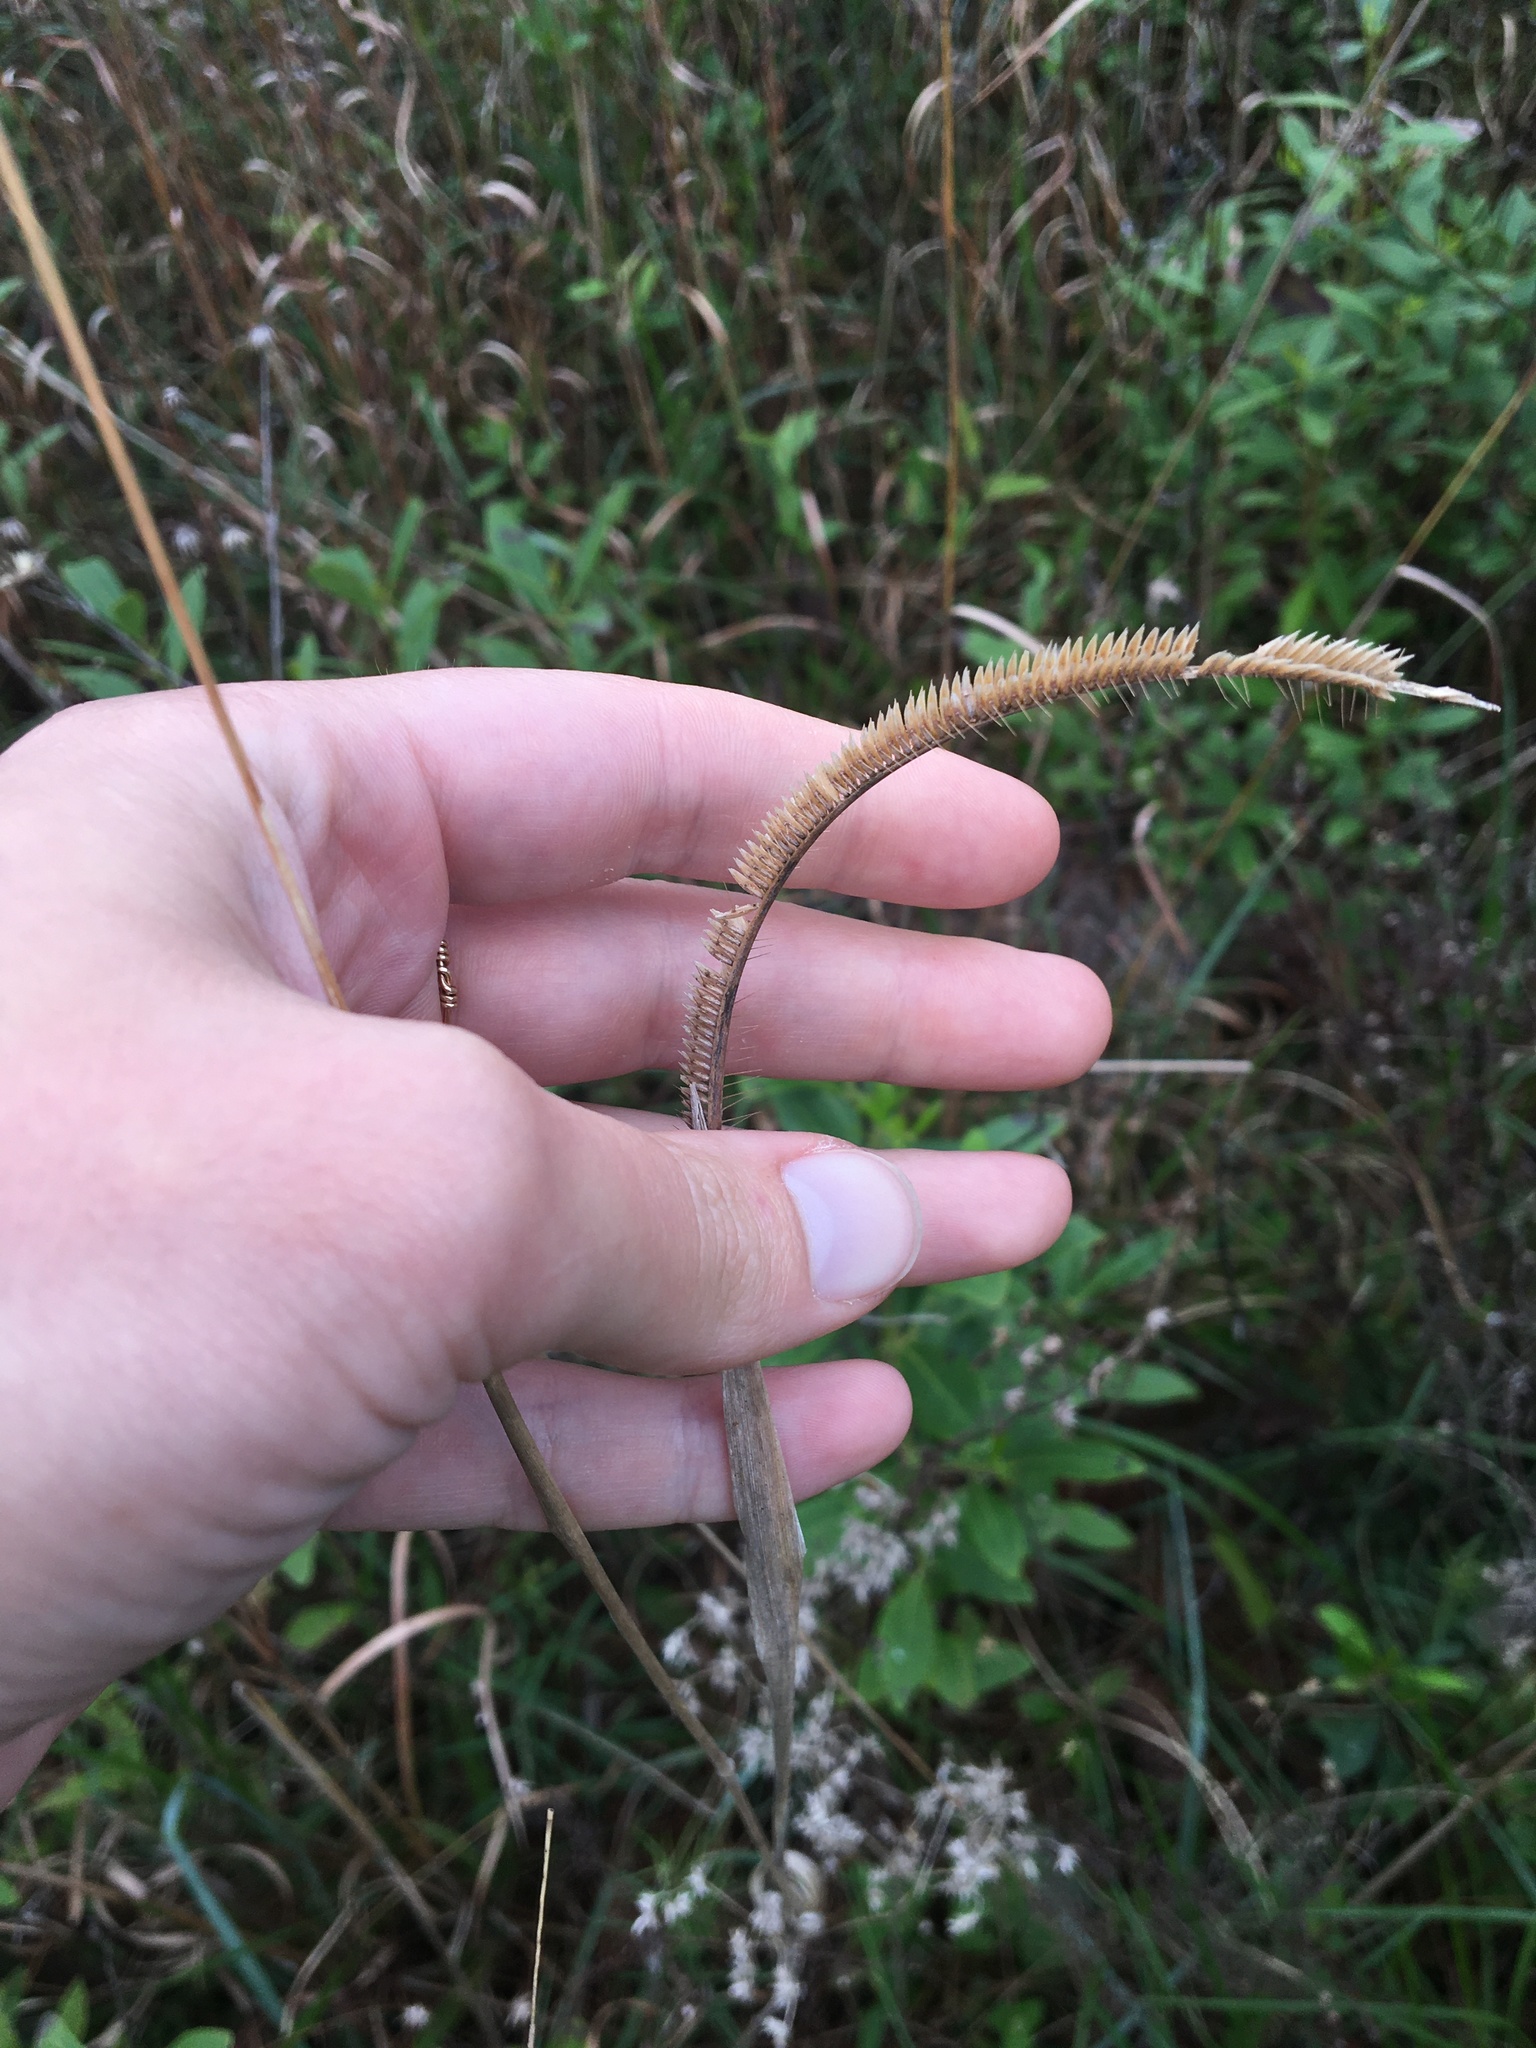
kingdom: Plantae
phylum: Tracheophyta
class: Liliopsida
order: Poales
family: Poaceae
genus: Ctenium
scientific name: Ctenium aromaticum
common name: Toothache grass
